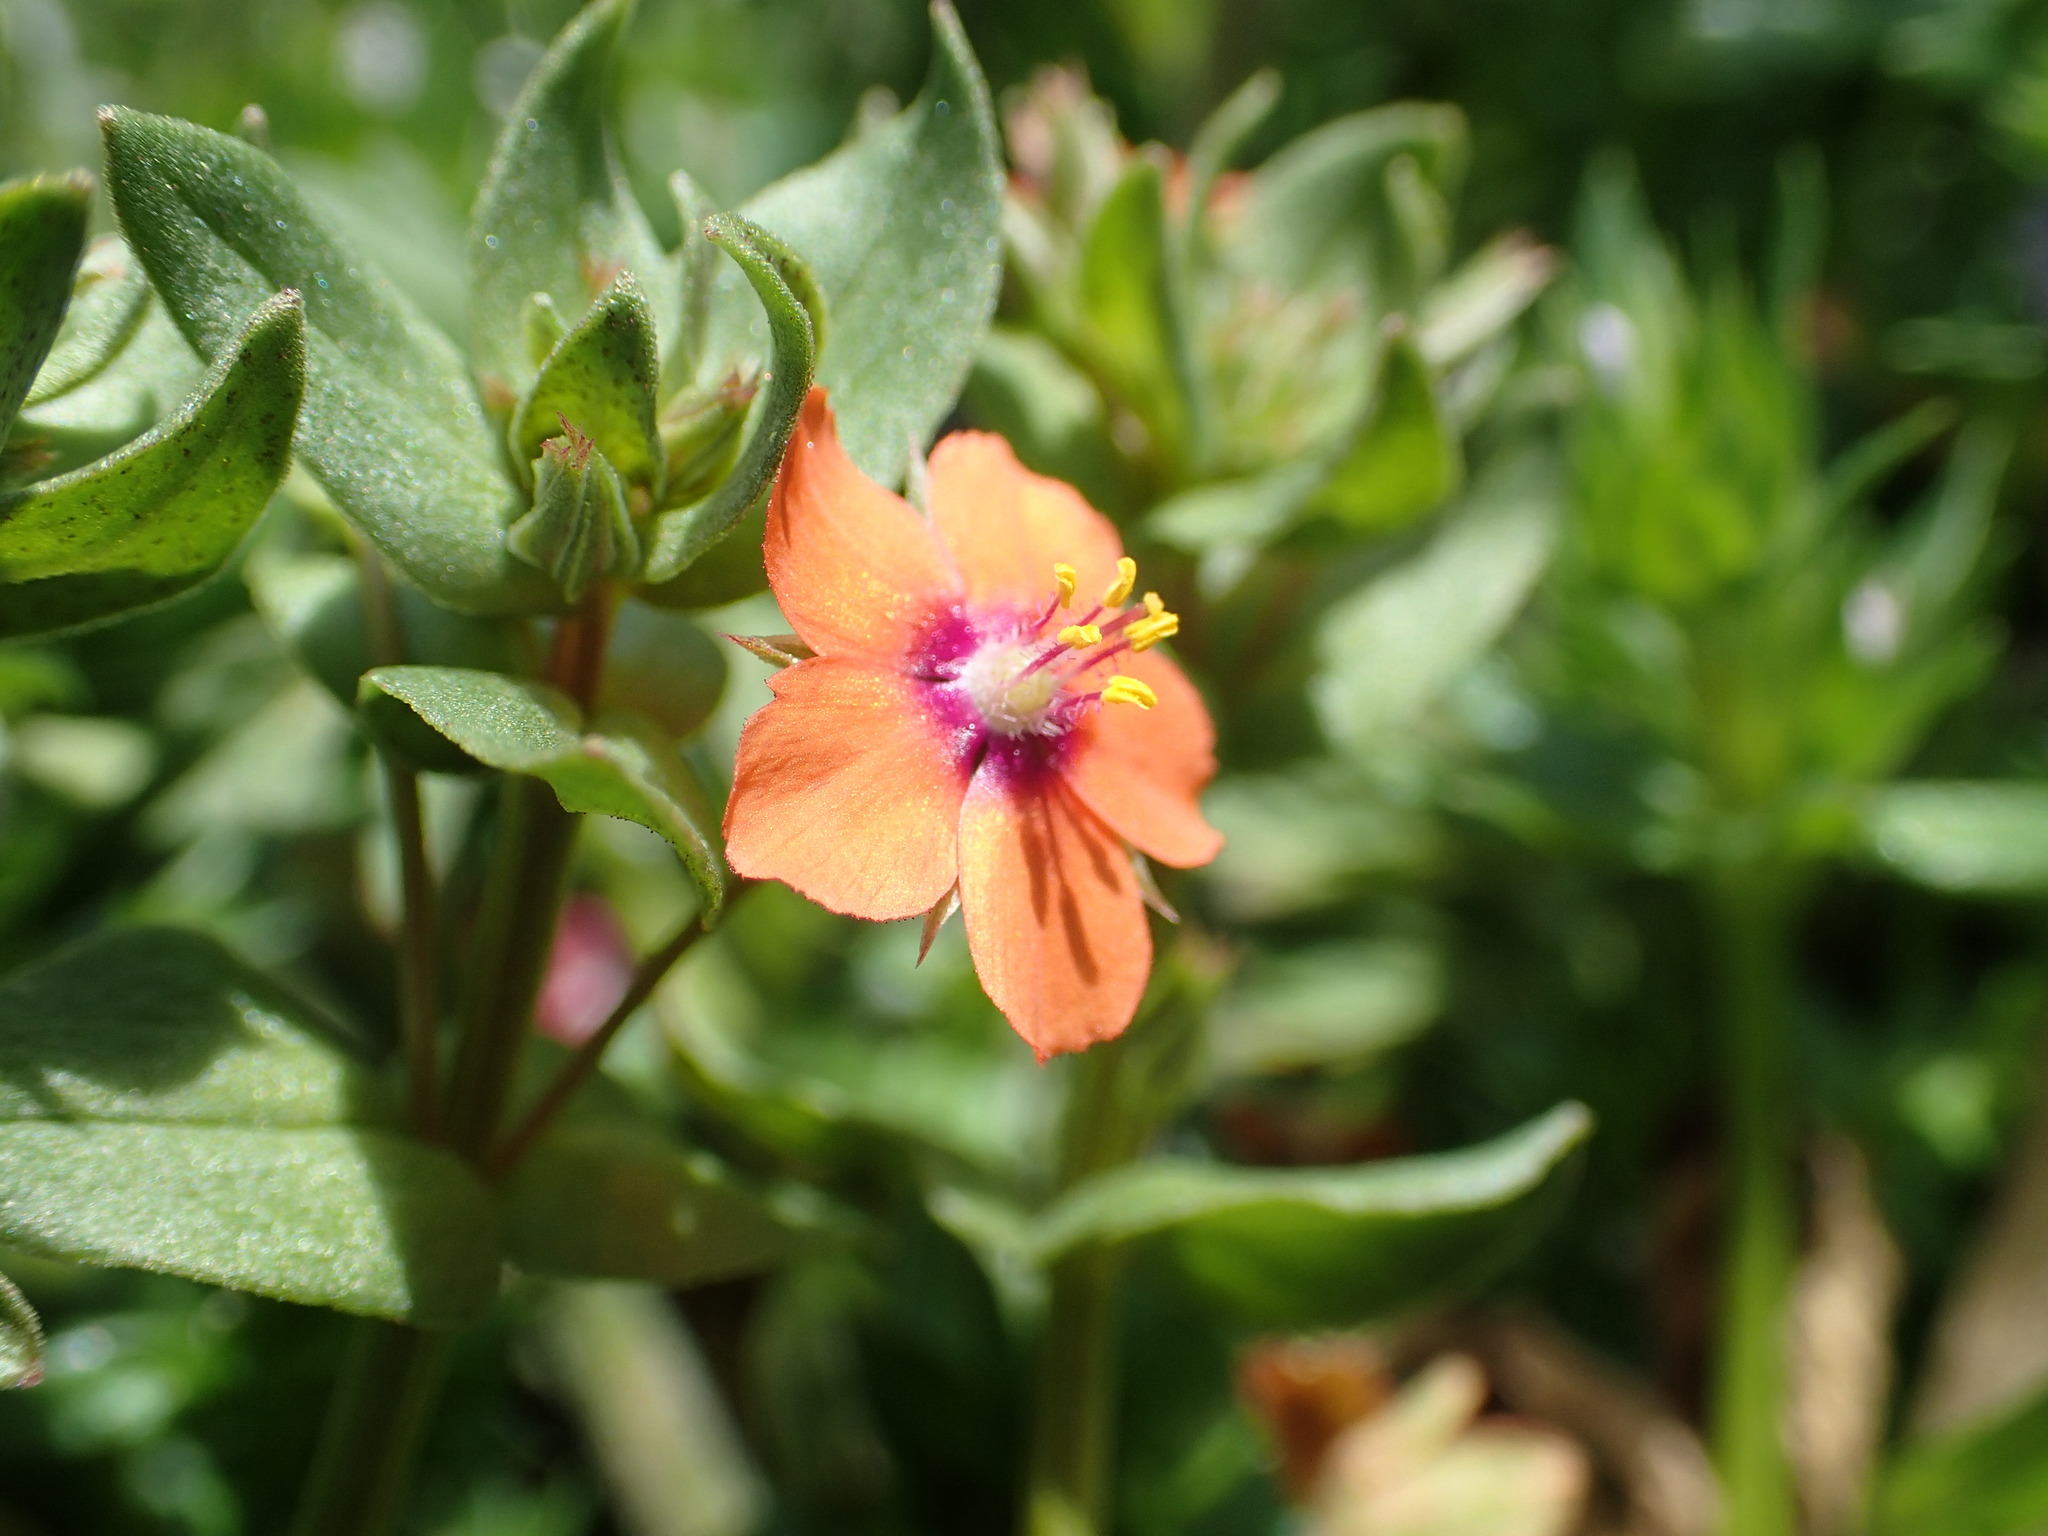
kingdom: Plantae
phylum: Tracheophyta
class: Magnoliopsida
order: Ericales
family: Primulaceae
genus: Lysimachia
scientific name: Lysimachia arvensis
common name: Scarlet pimpernel
